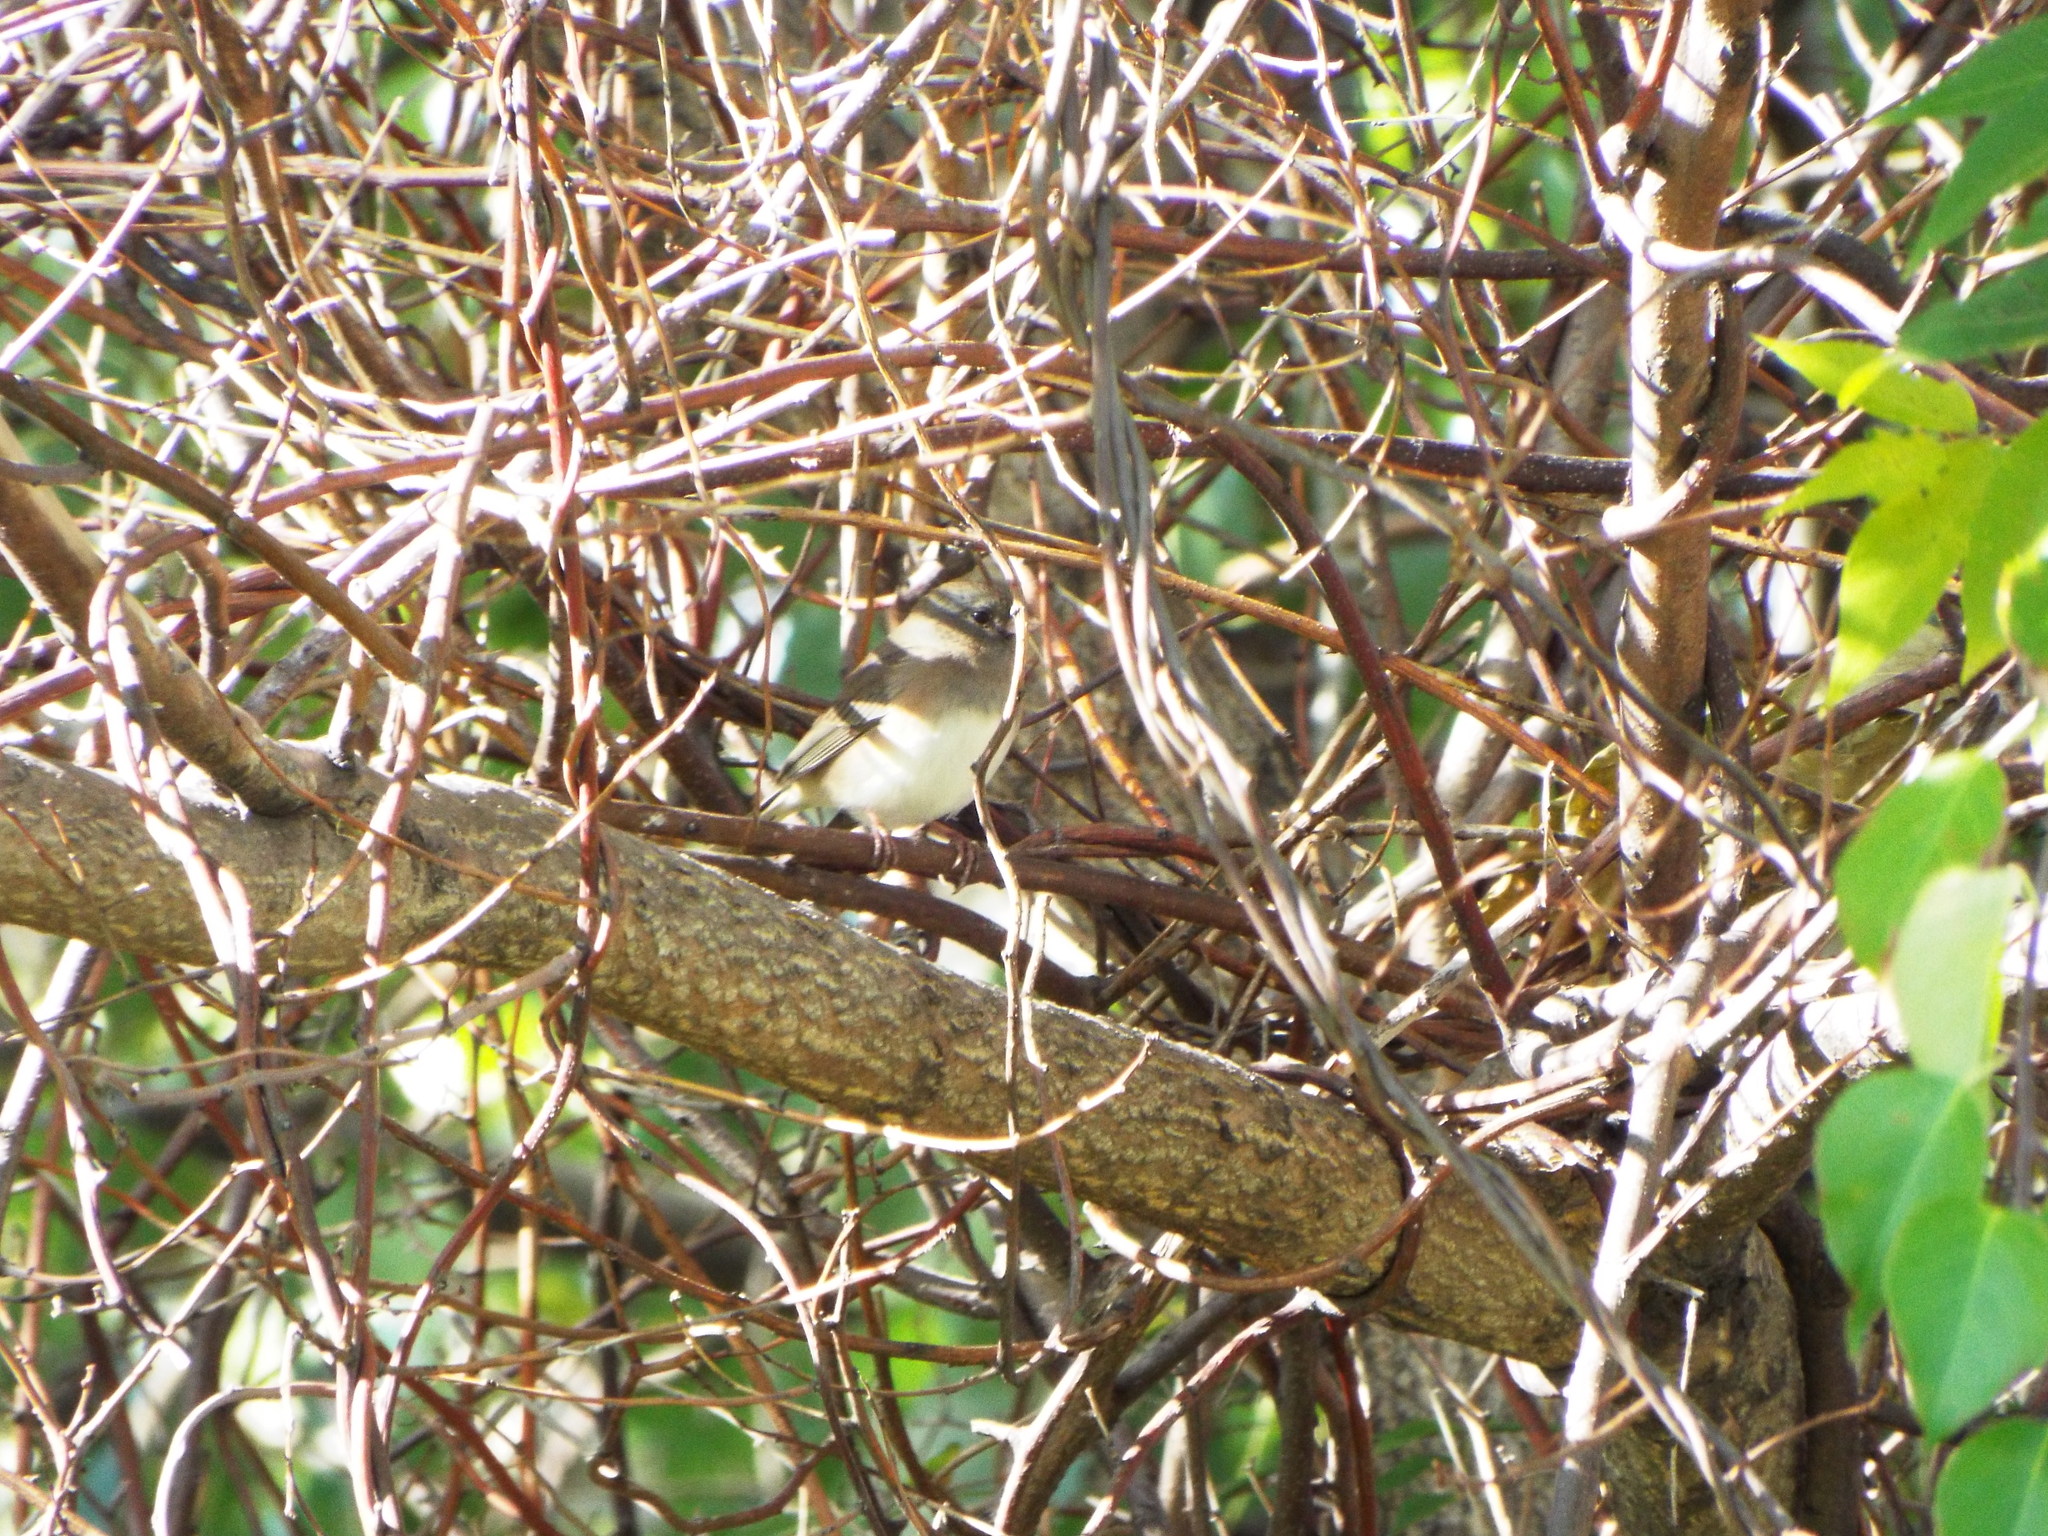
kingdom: Animalia
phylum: Chordata
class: Aves
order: Passeriformes
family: Passerellidae
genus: Junco
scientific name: Junco hyemalis
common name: Dark-eyed junco
